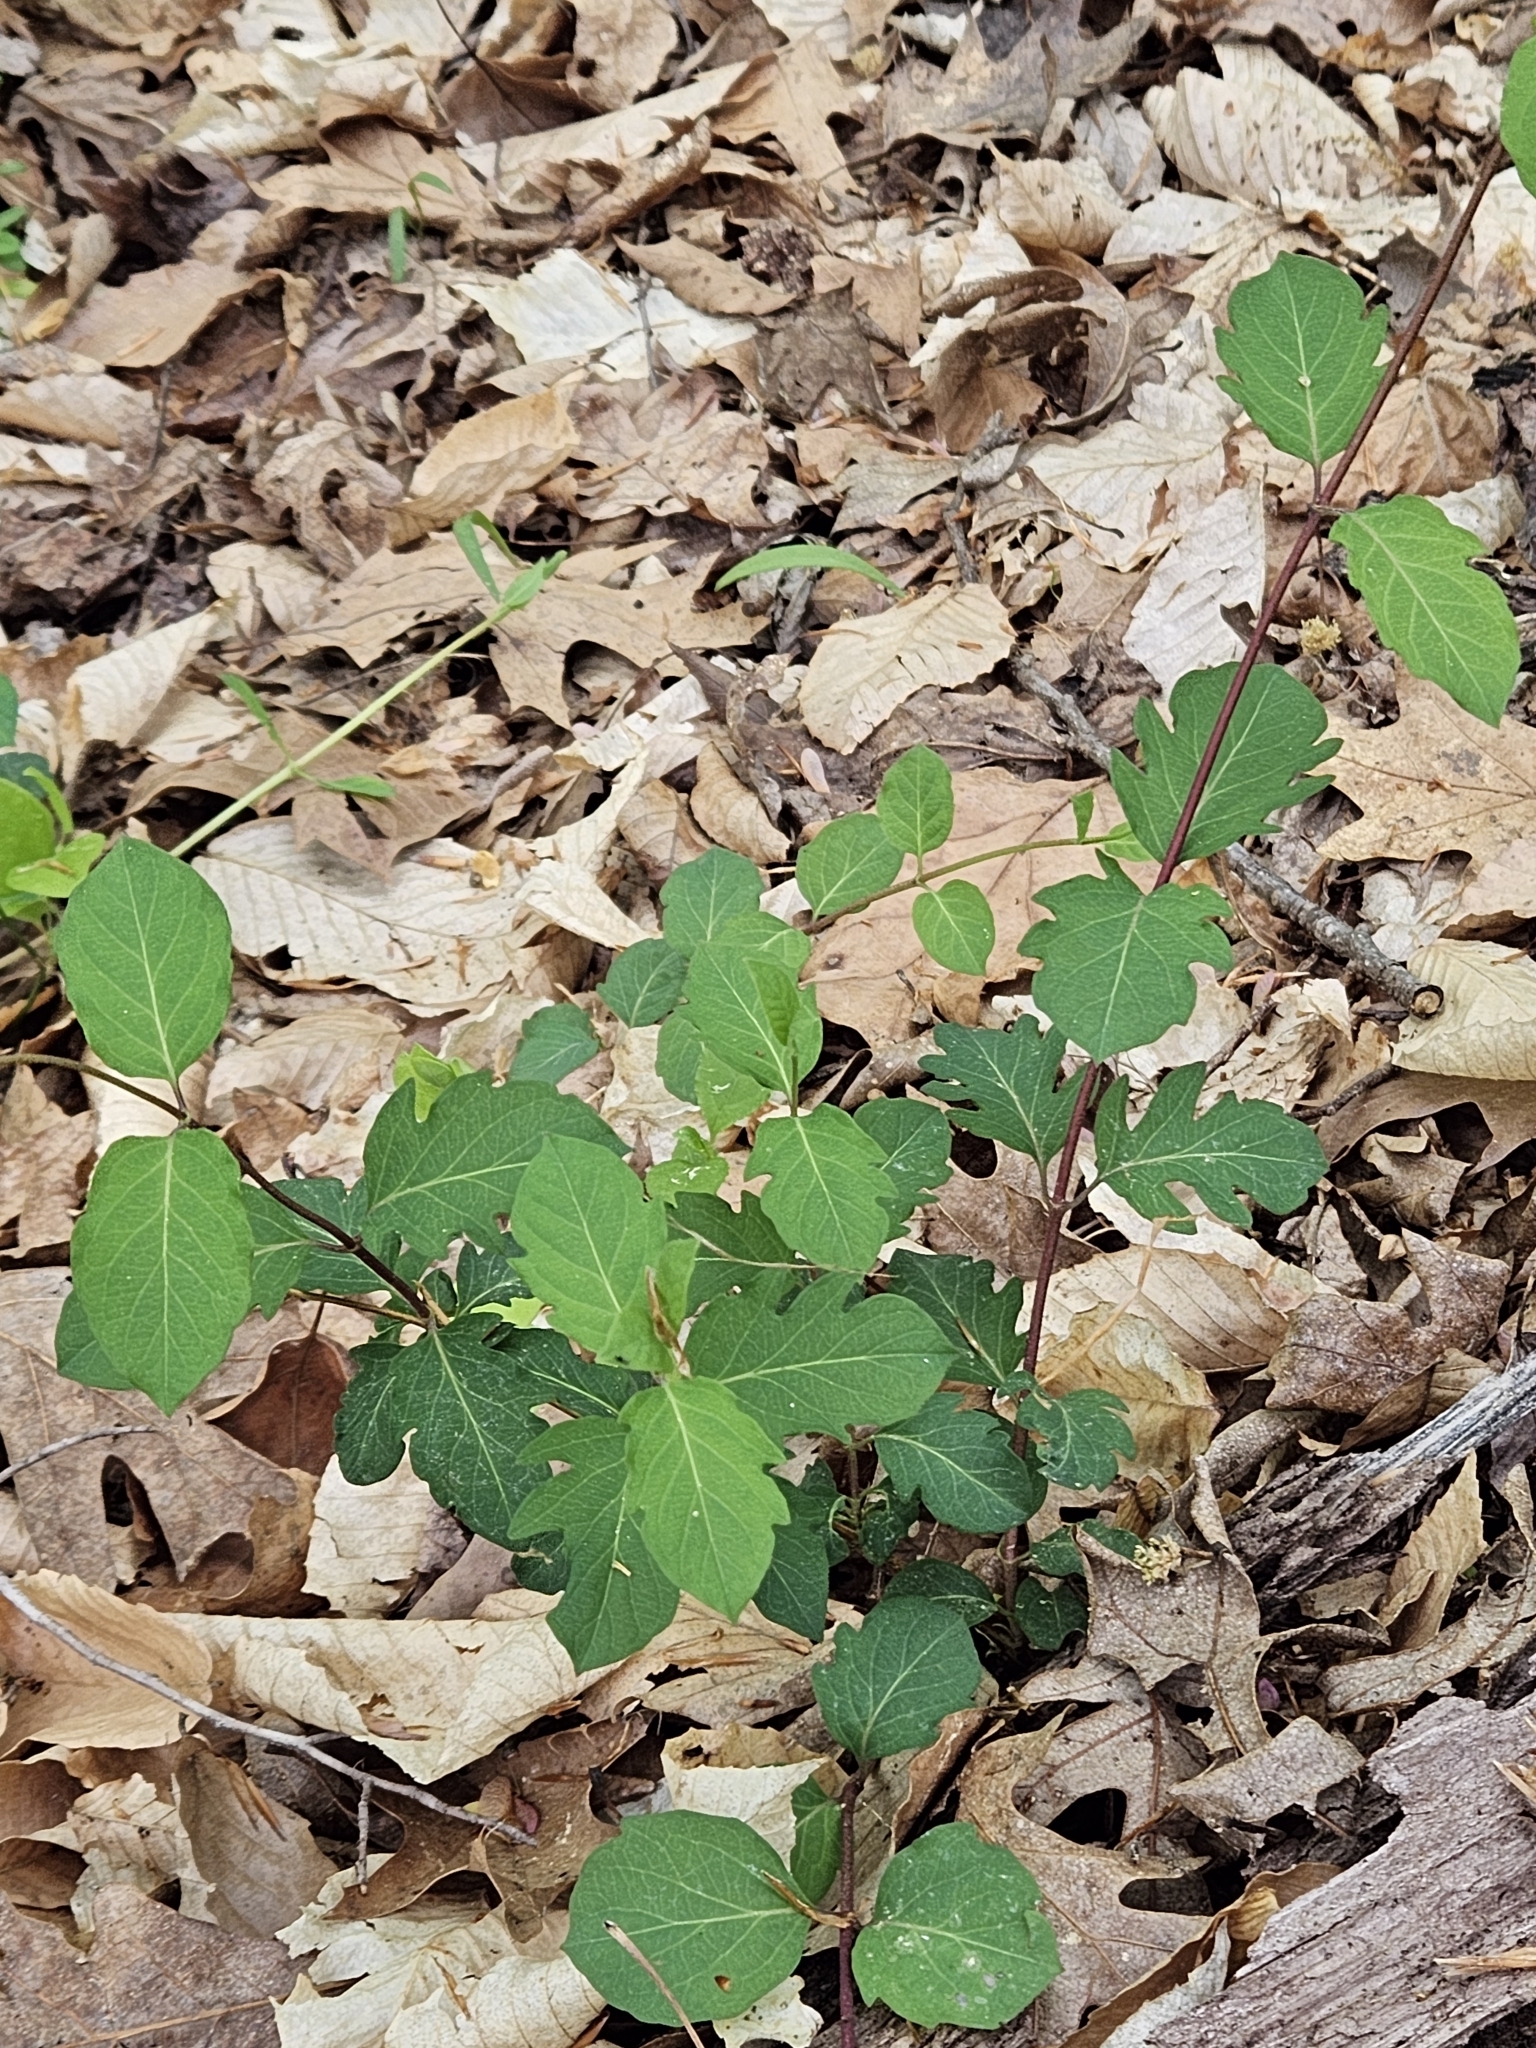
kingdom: Plantae
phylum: Tracheophyta
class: Magnoliopsida
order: Dipsacales
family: Caprifoliaceae
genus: Lonicera
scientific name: Lonicera japonica
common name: Japanese honeysuckle
